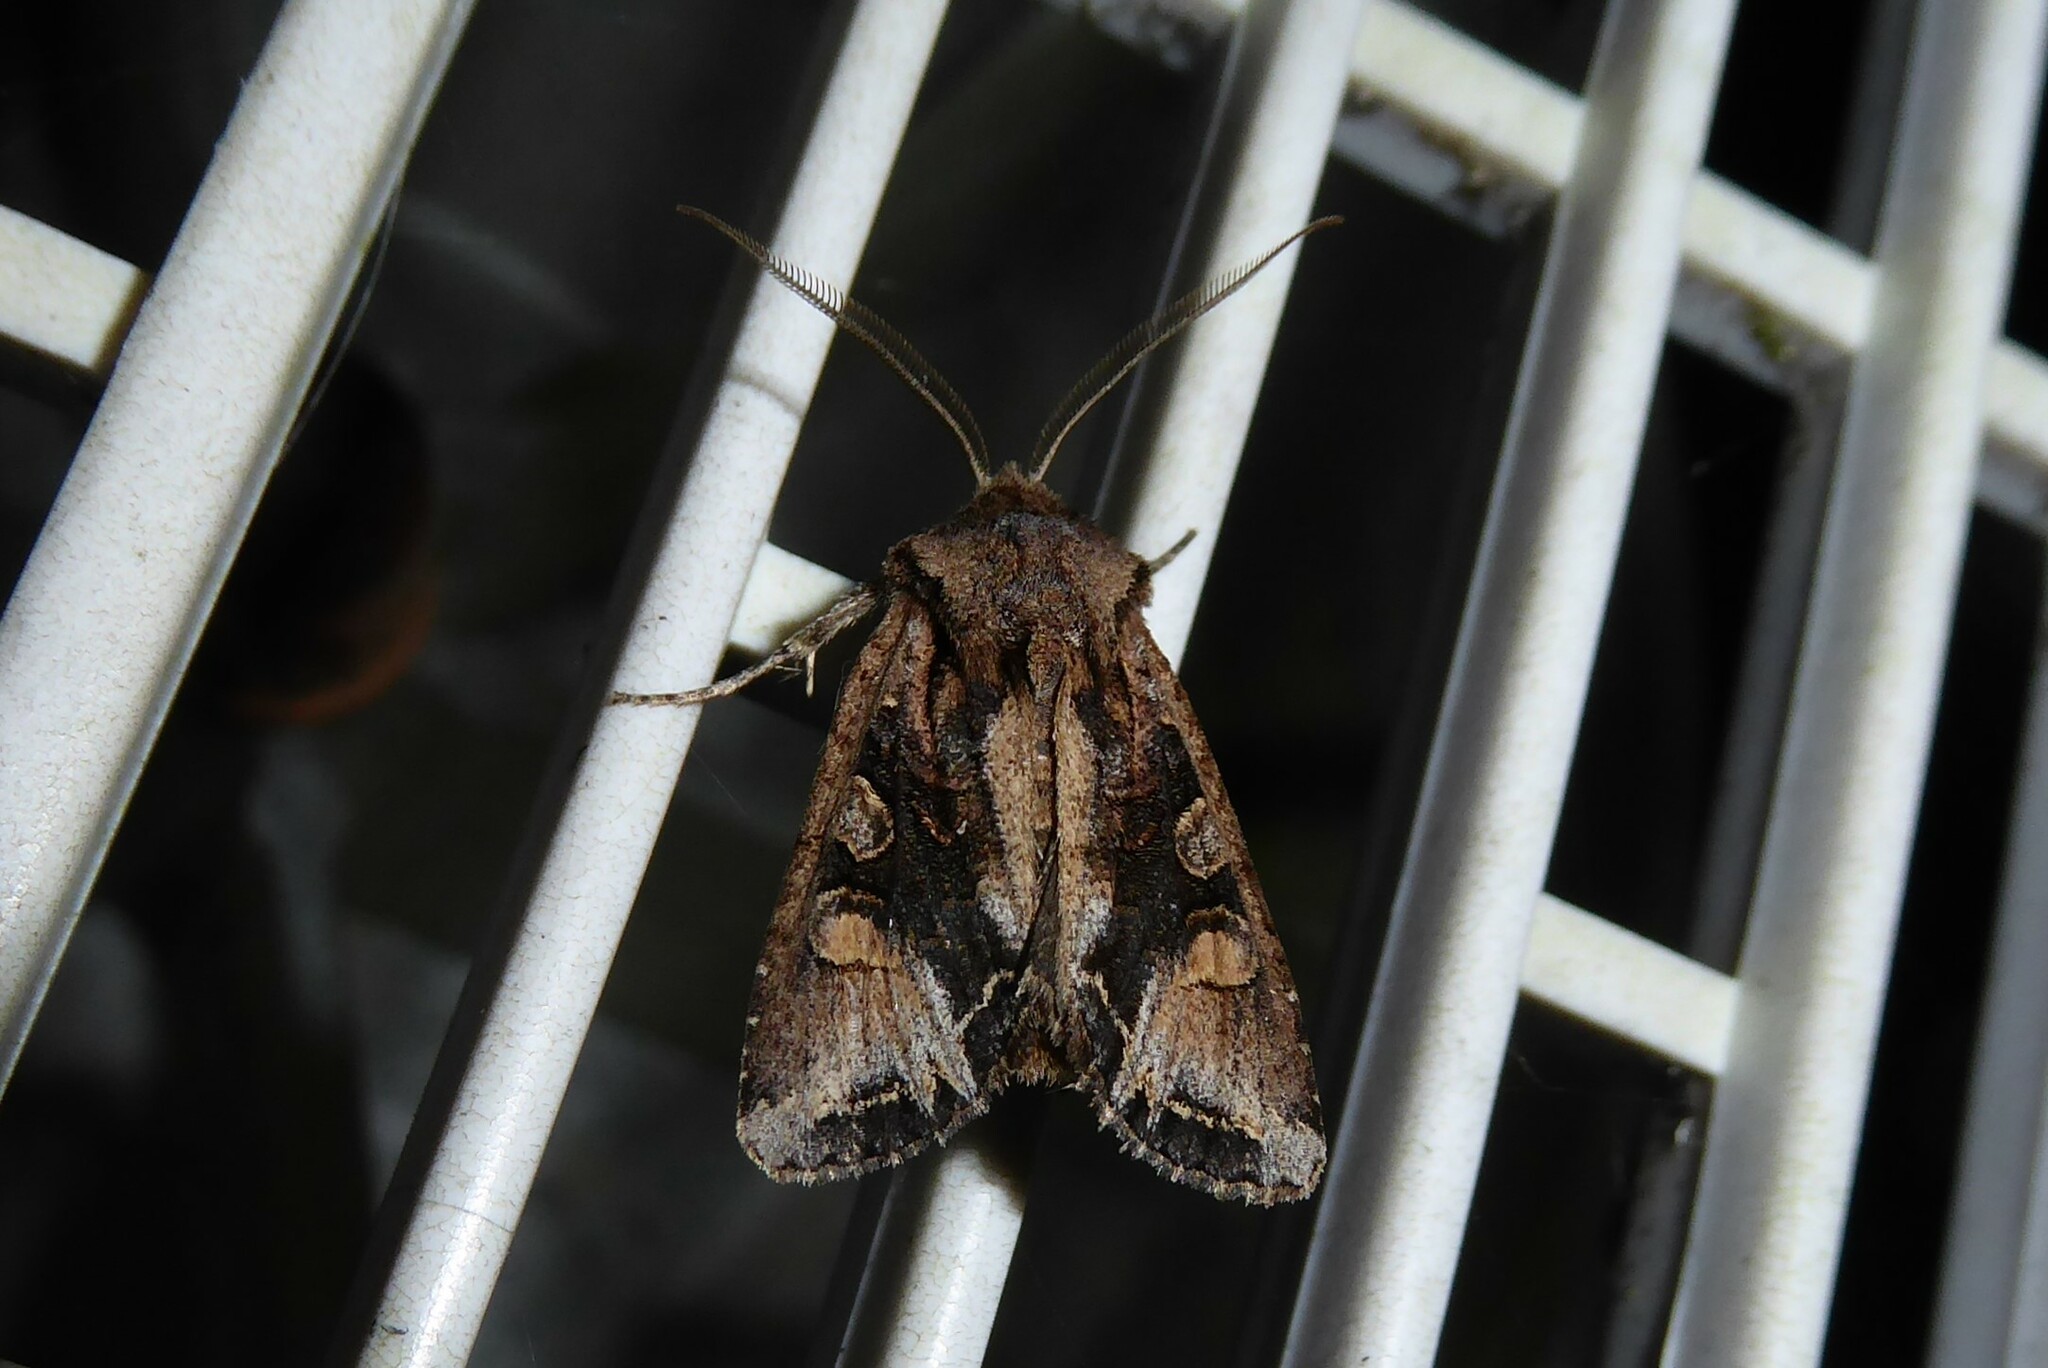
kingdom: Animalia
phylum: Arthropoda
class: Insecta
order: Lepidoptera
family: Noctuidae
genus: Ichneutica
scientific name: Ichneutica
